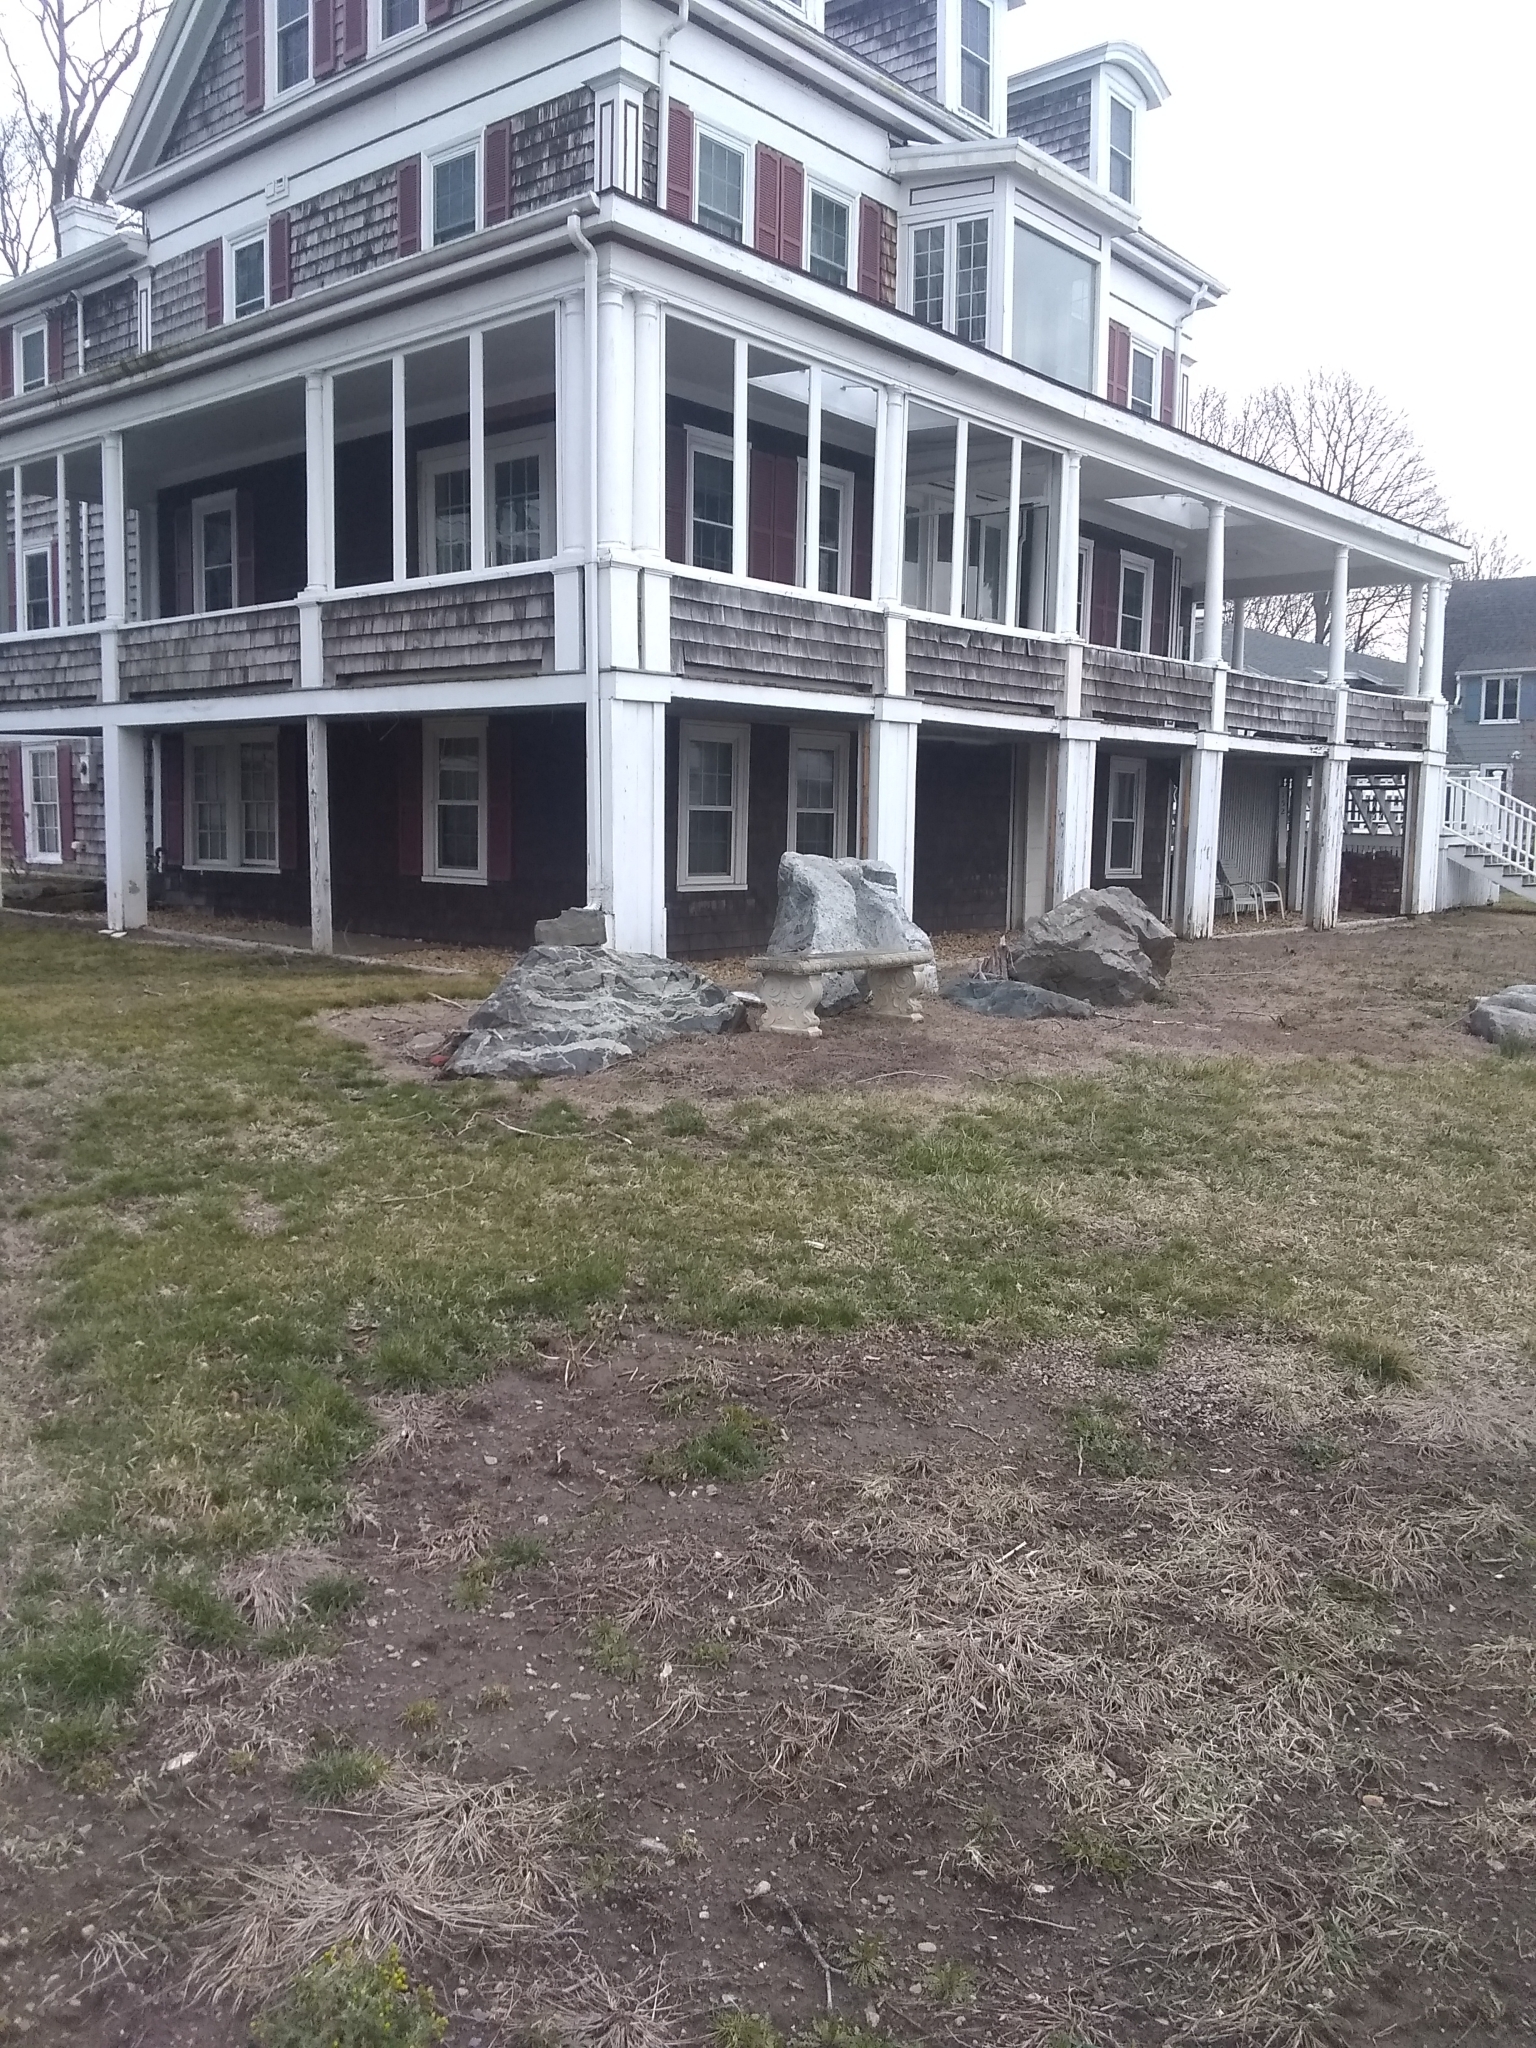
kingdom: Animalia
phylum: Chordata
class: Aves
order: Passeriformes
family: Mimidae
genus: Mimus
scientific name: Mimus polyglottos
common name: Northern mockingbird
